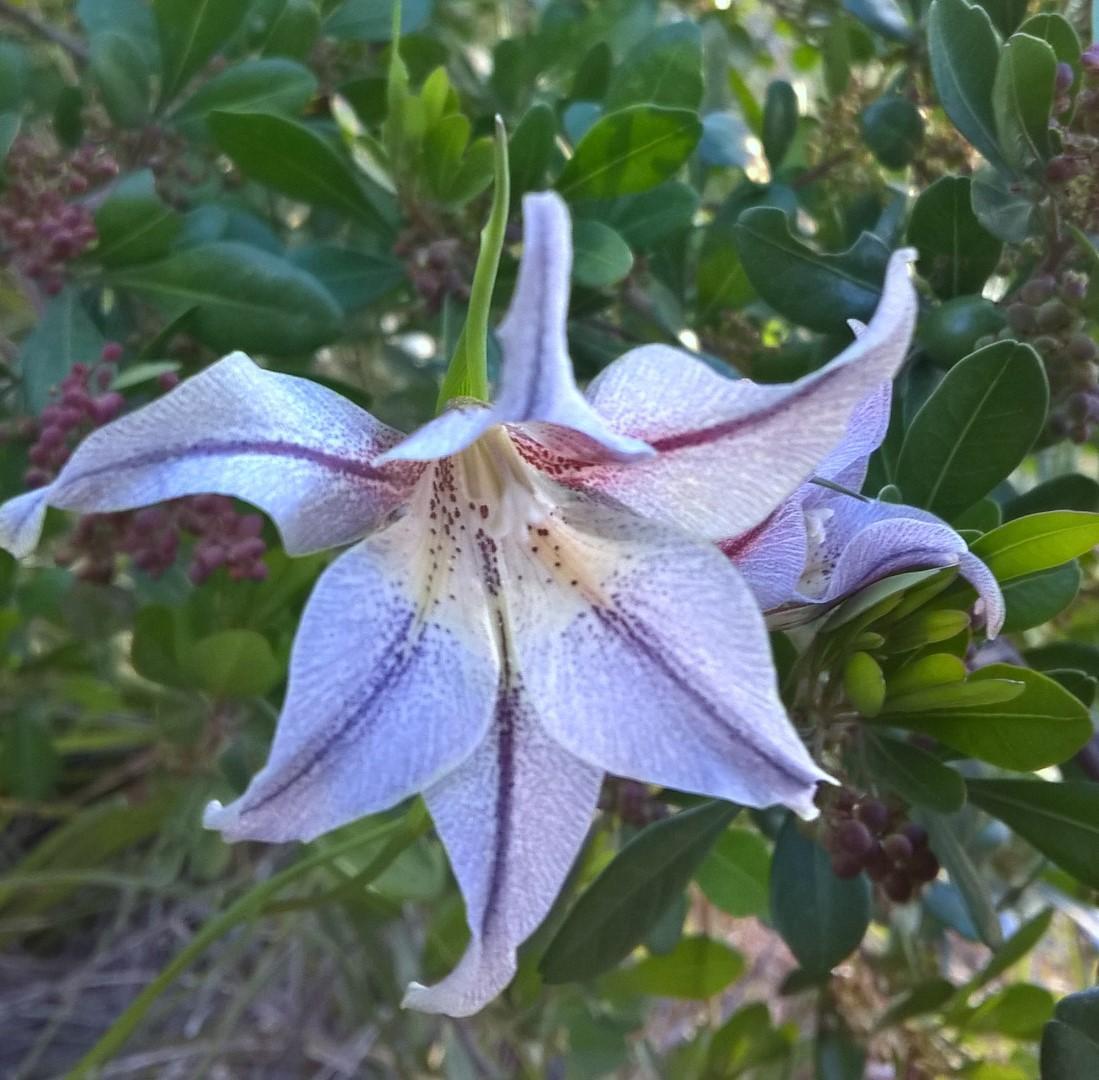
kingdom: Plantae
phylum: Tracheophyta
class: Liliopsida
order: Asparagales
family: Iridaceae
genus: Gladiolus
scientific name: Gladiolus liliaceus
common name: Large brown afrikaner
